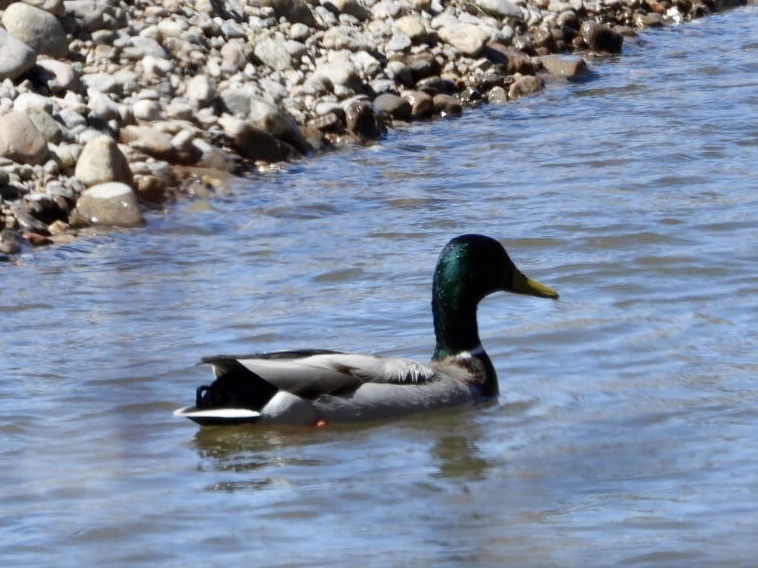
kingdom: Animalia
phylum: Chordata
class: Aves
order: Anseriformes
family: Anatidae
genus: Anas
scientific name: Anas platyrhynchos
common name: Mallard
